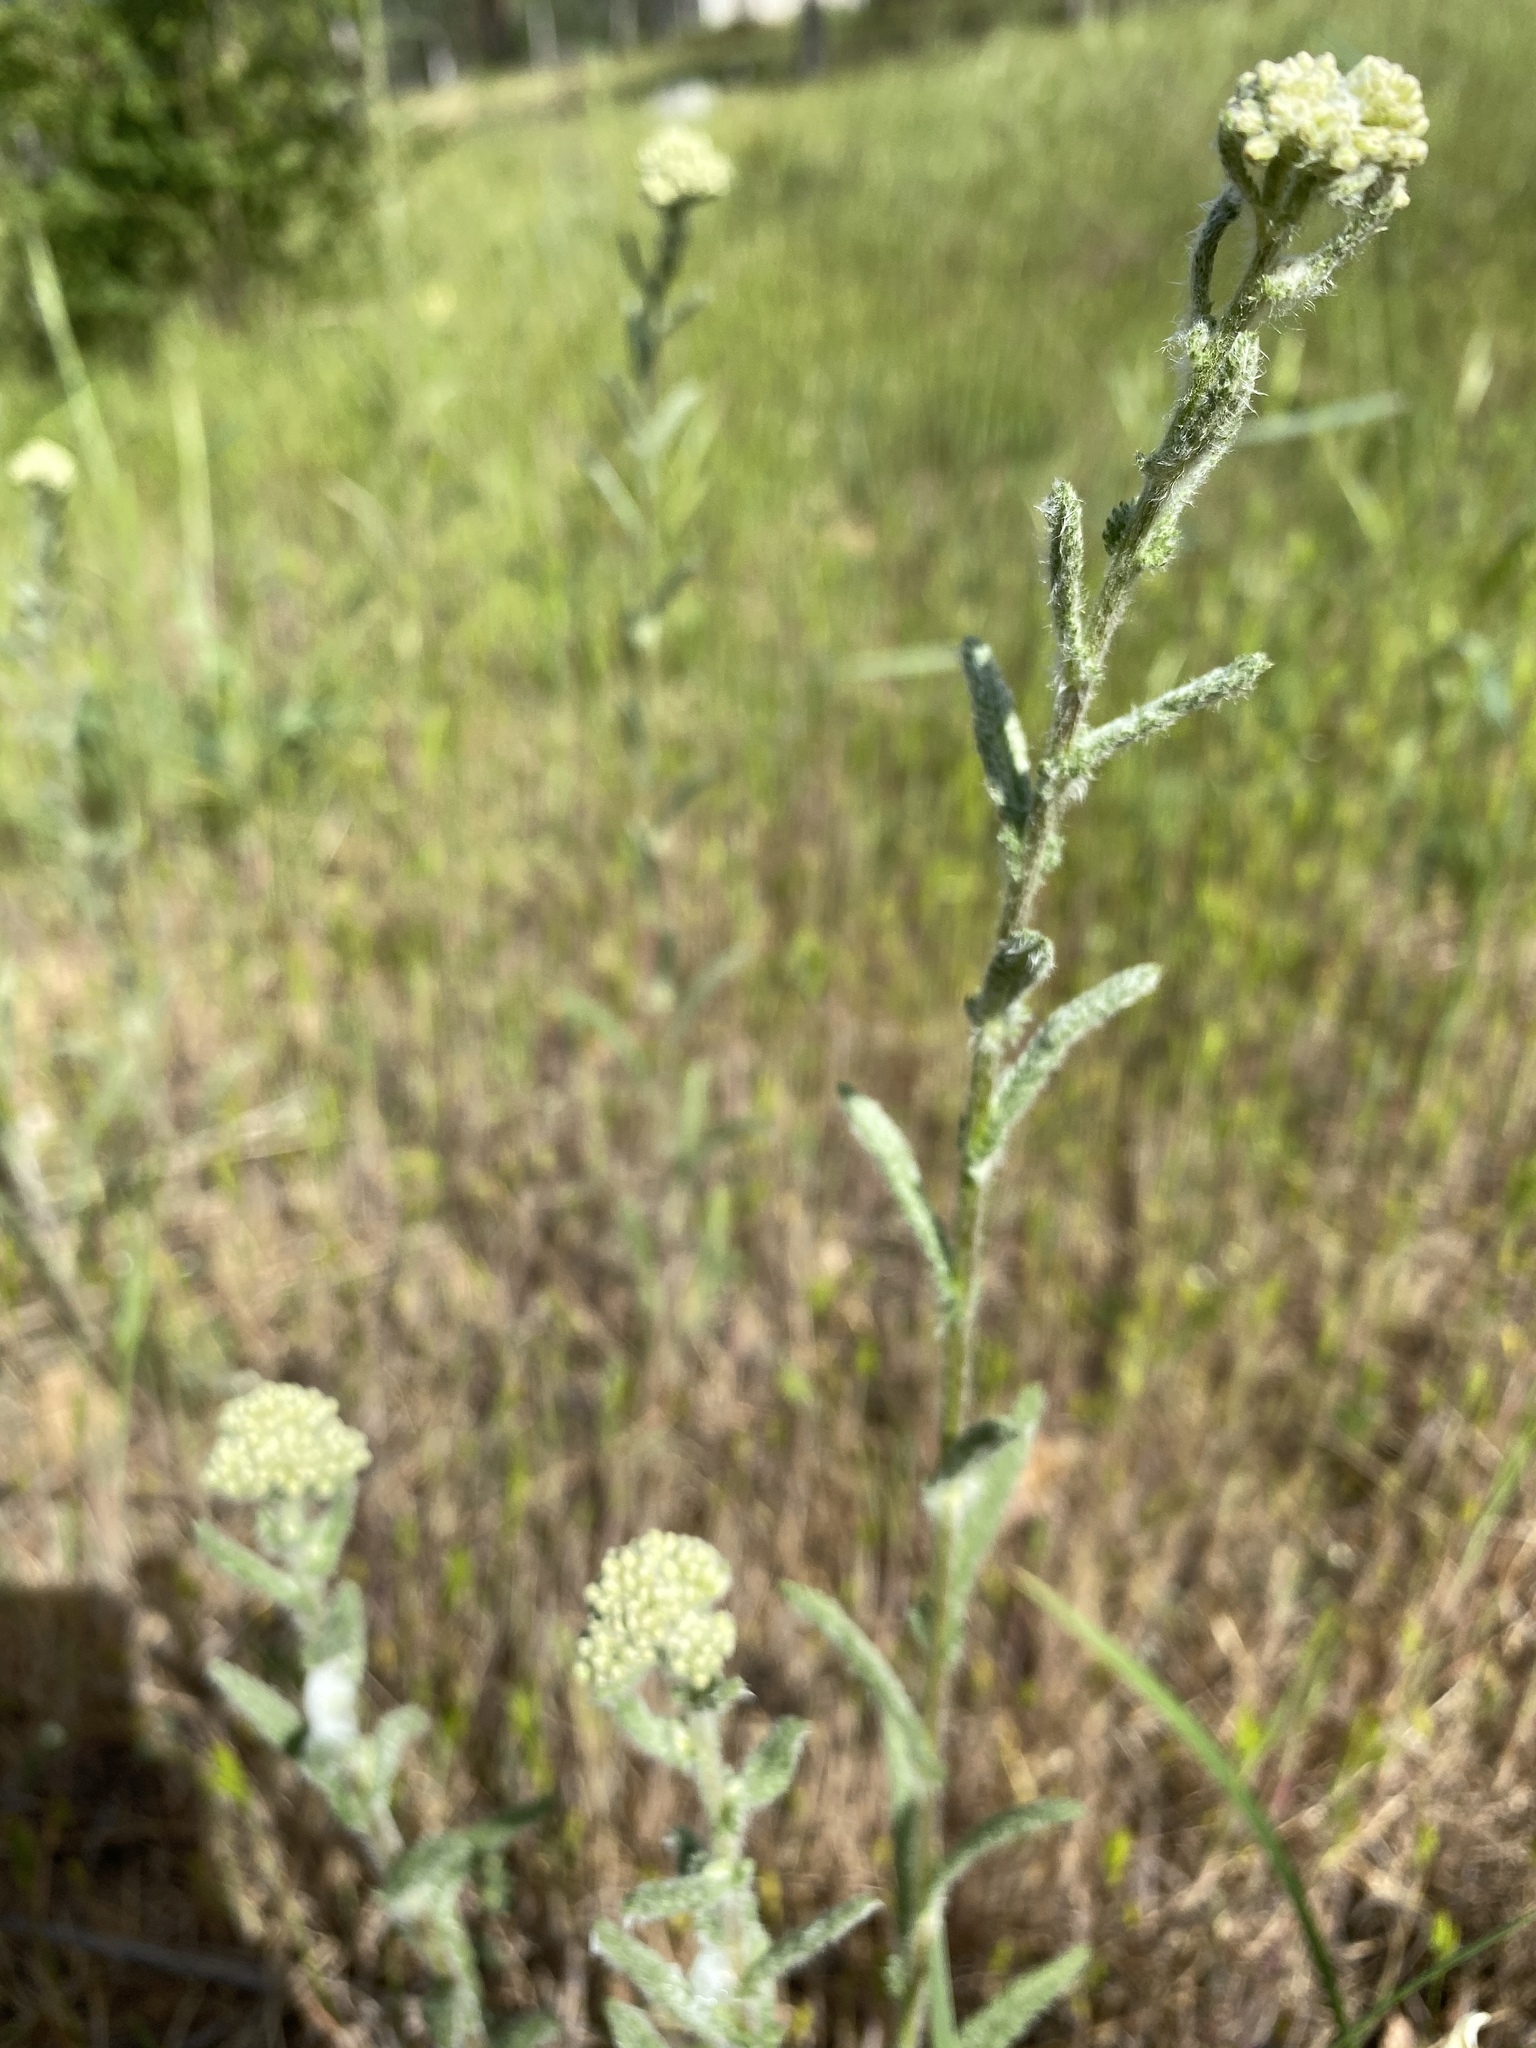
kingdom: Plantae
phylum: Tracheophyta
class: Magnoliopsida
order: Asterales
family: Asteraceae
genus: Achillea
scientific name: Achillea millefolium
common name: Yarrow
